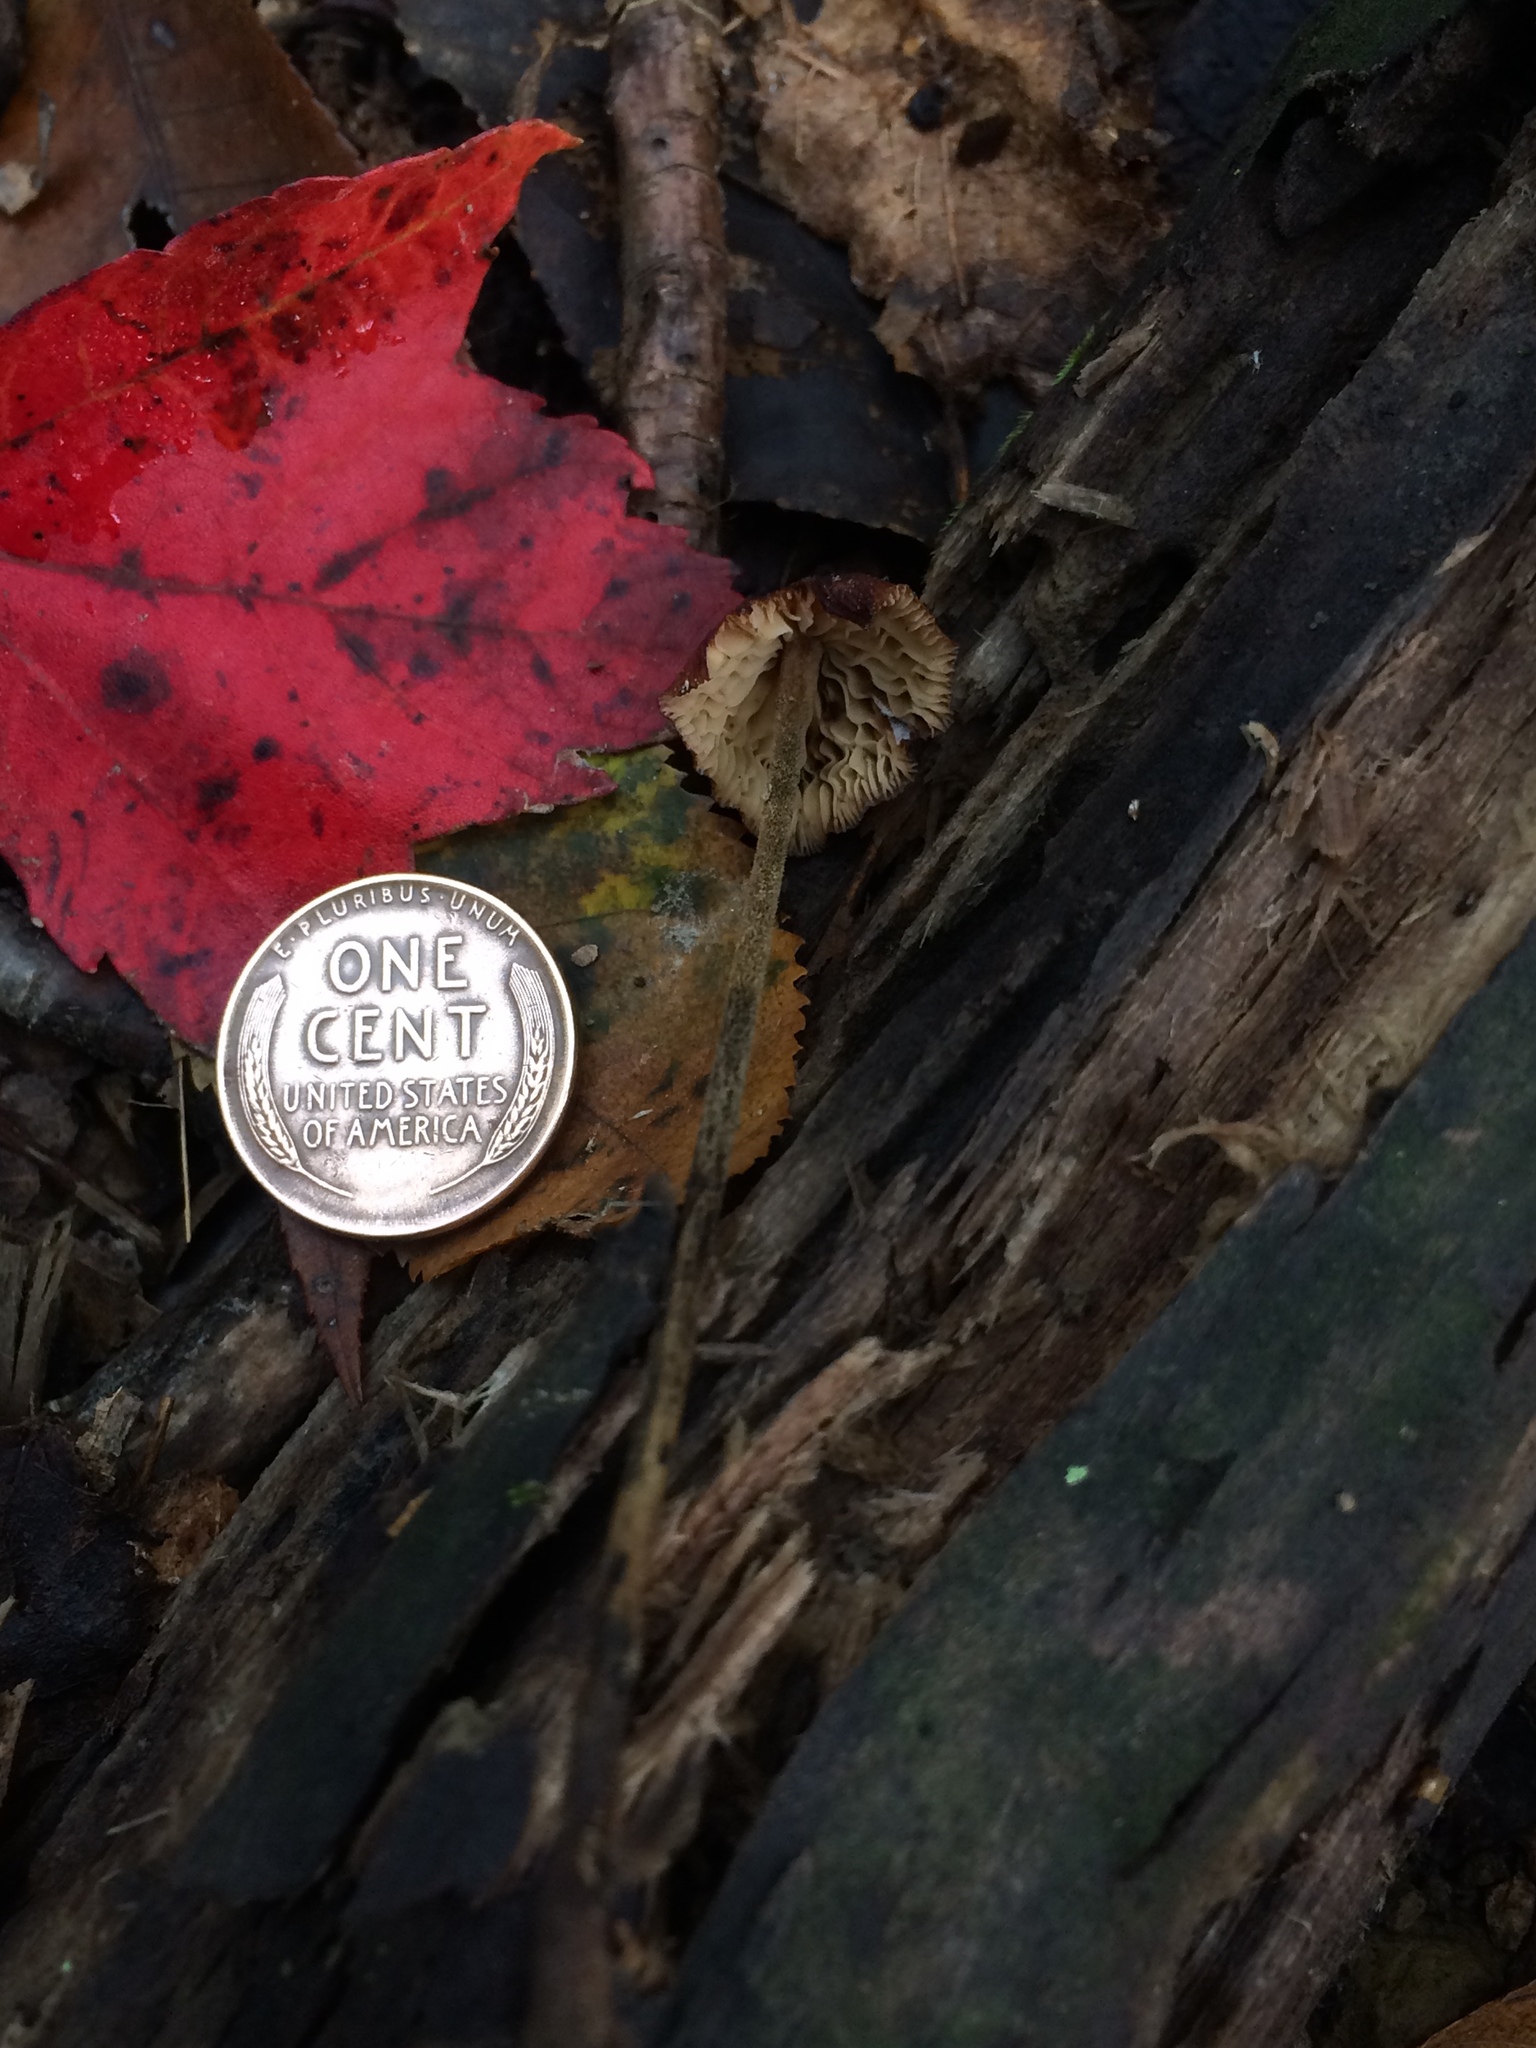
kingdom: Fungi
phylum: Basidiomycota
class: Agaricomycetes
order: Agaricales
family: Physalacriaceae
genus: Rhizomarasmius
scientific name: Rhizomarasmius pyrrhocephalus
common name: Hairy long stem marasmius
